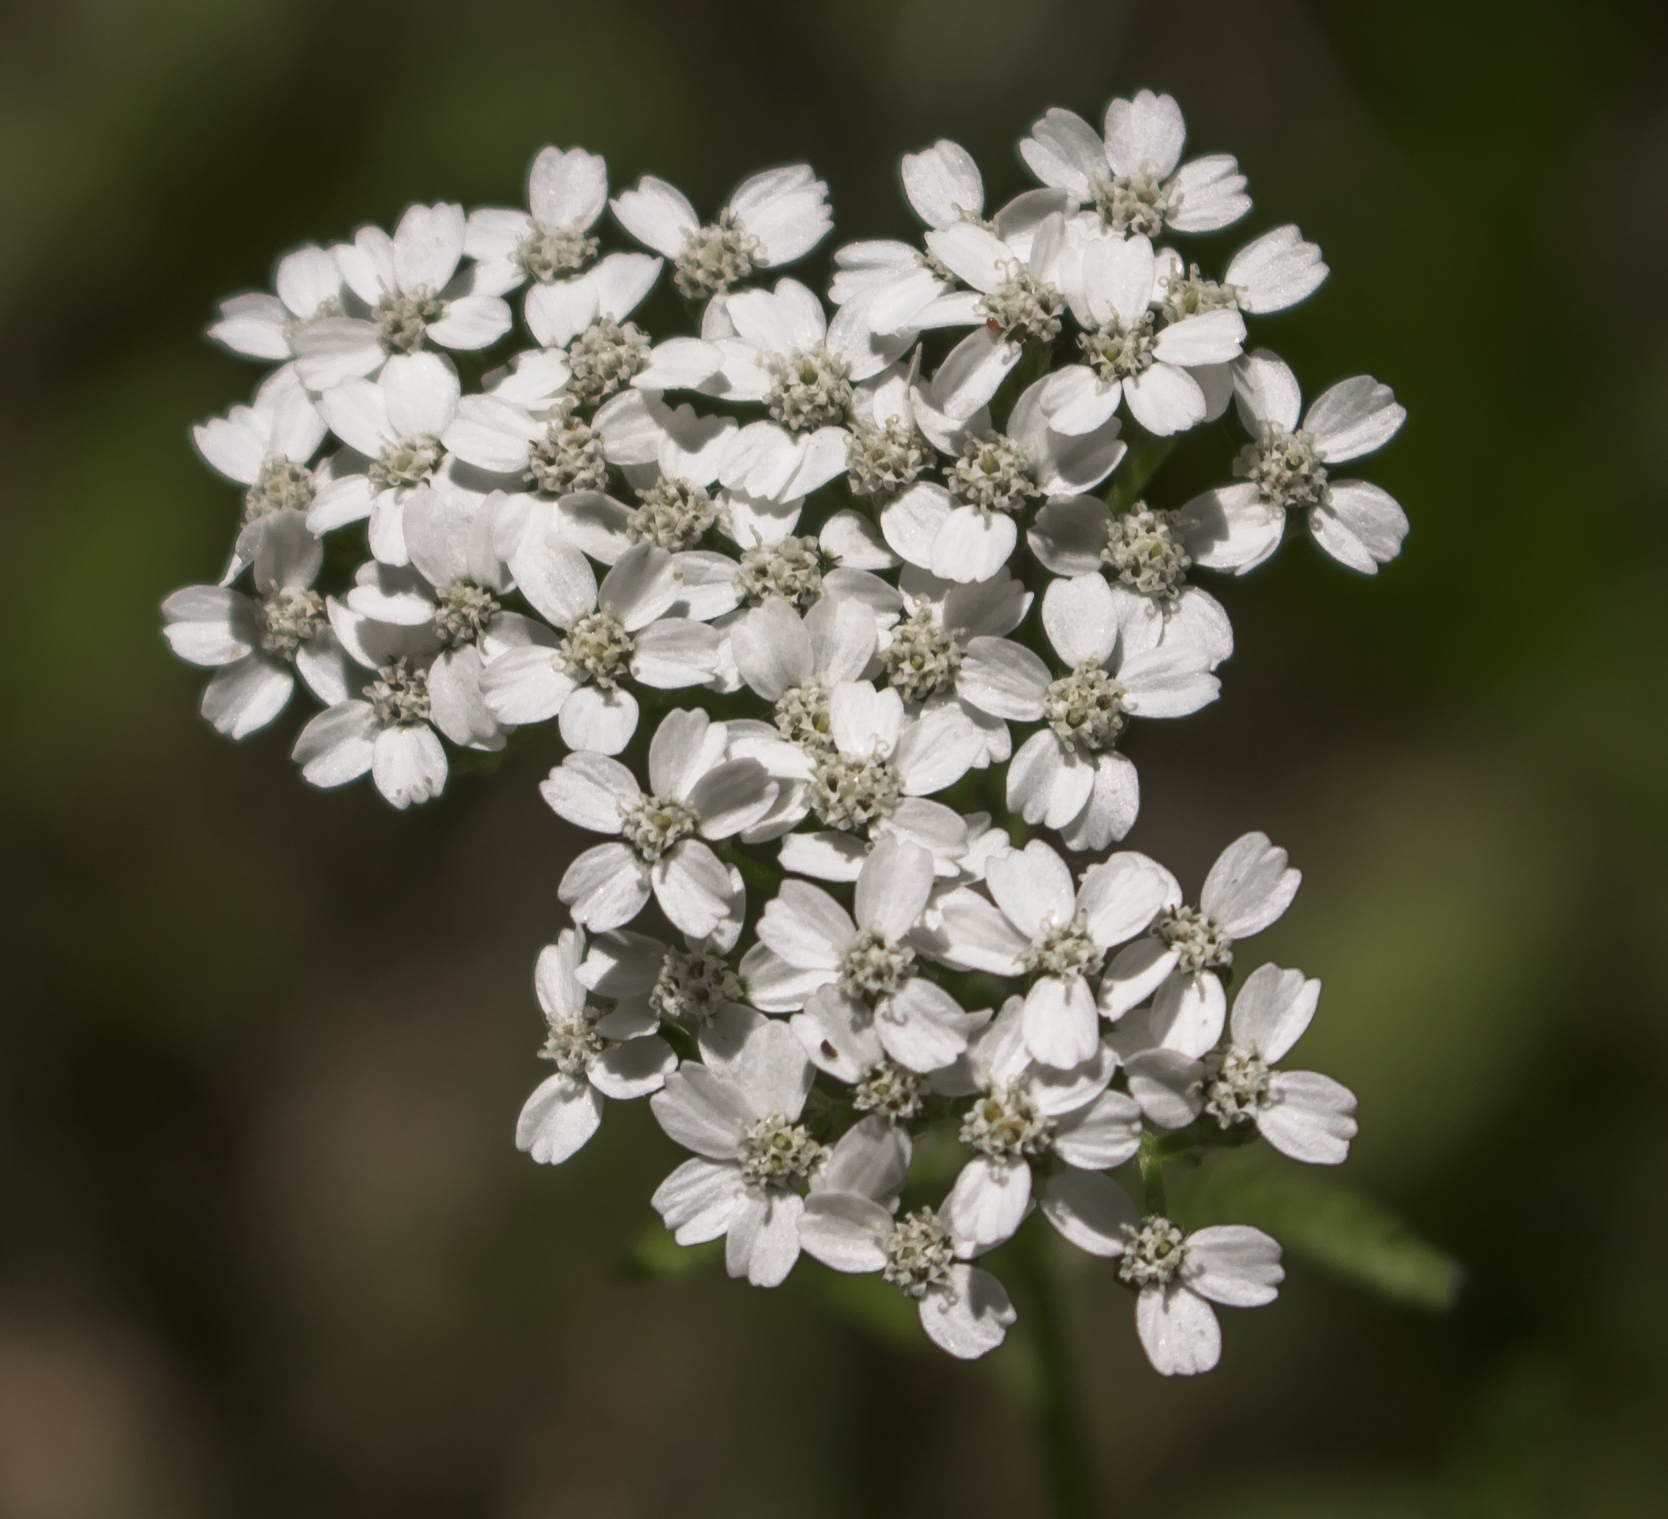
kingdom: Plantae
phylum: Tracheophyta
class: Magnoliopsida
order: Asterales
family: Asteraceae
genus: Achillea
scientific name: Achillea millefolium
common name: Yarrow
